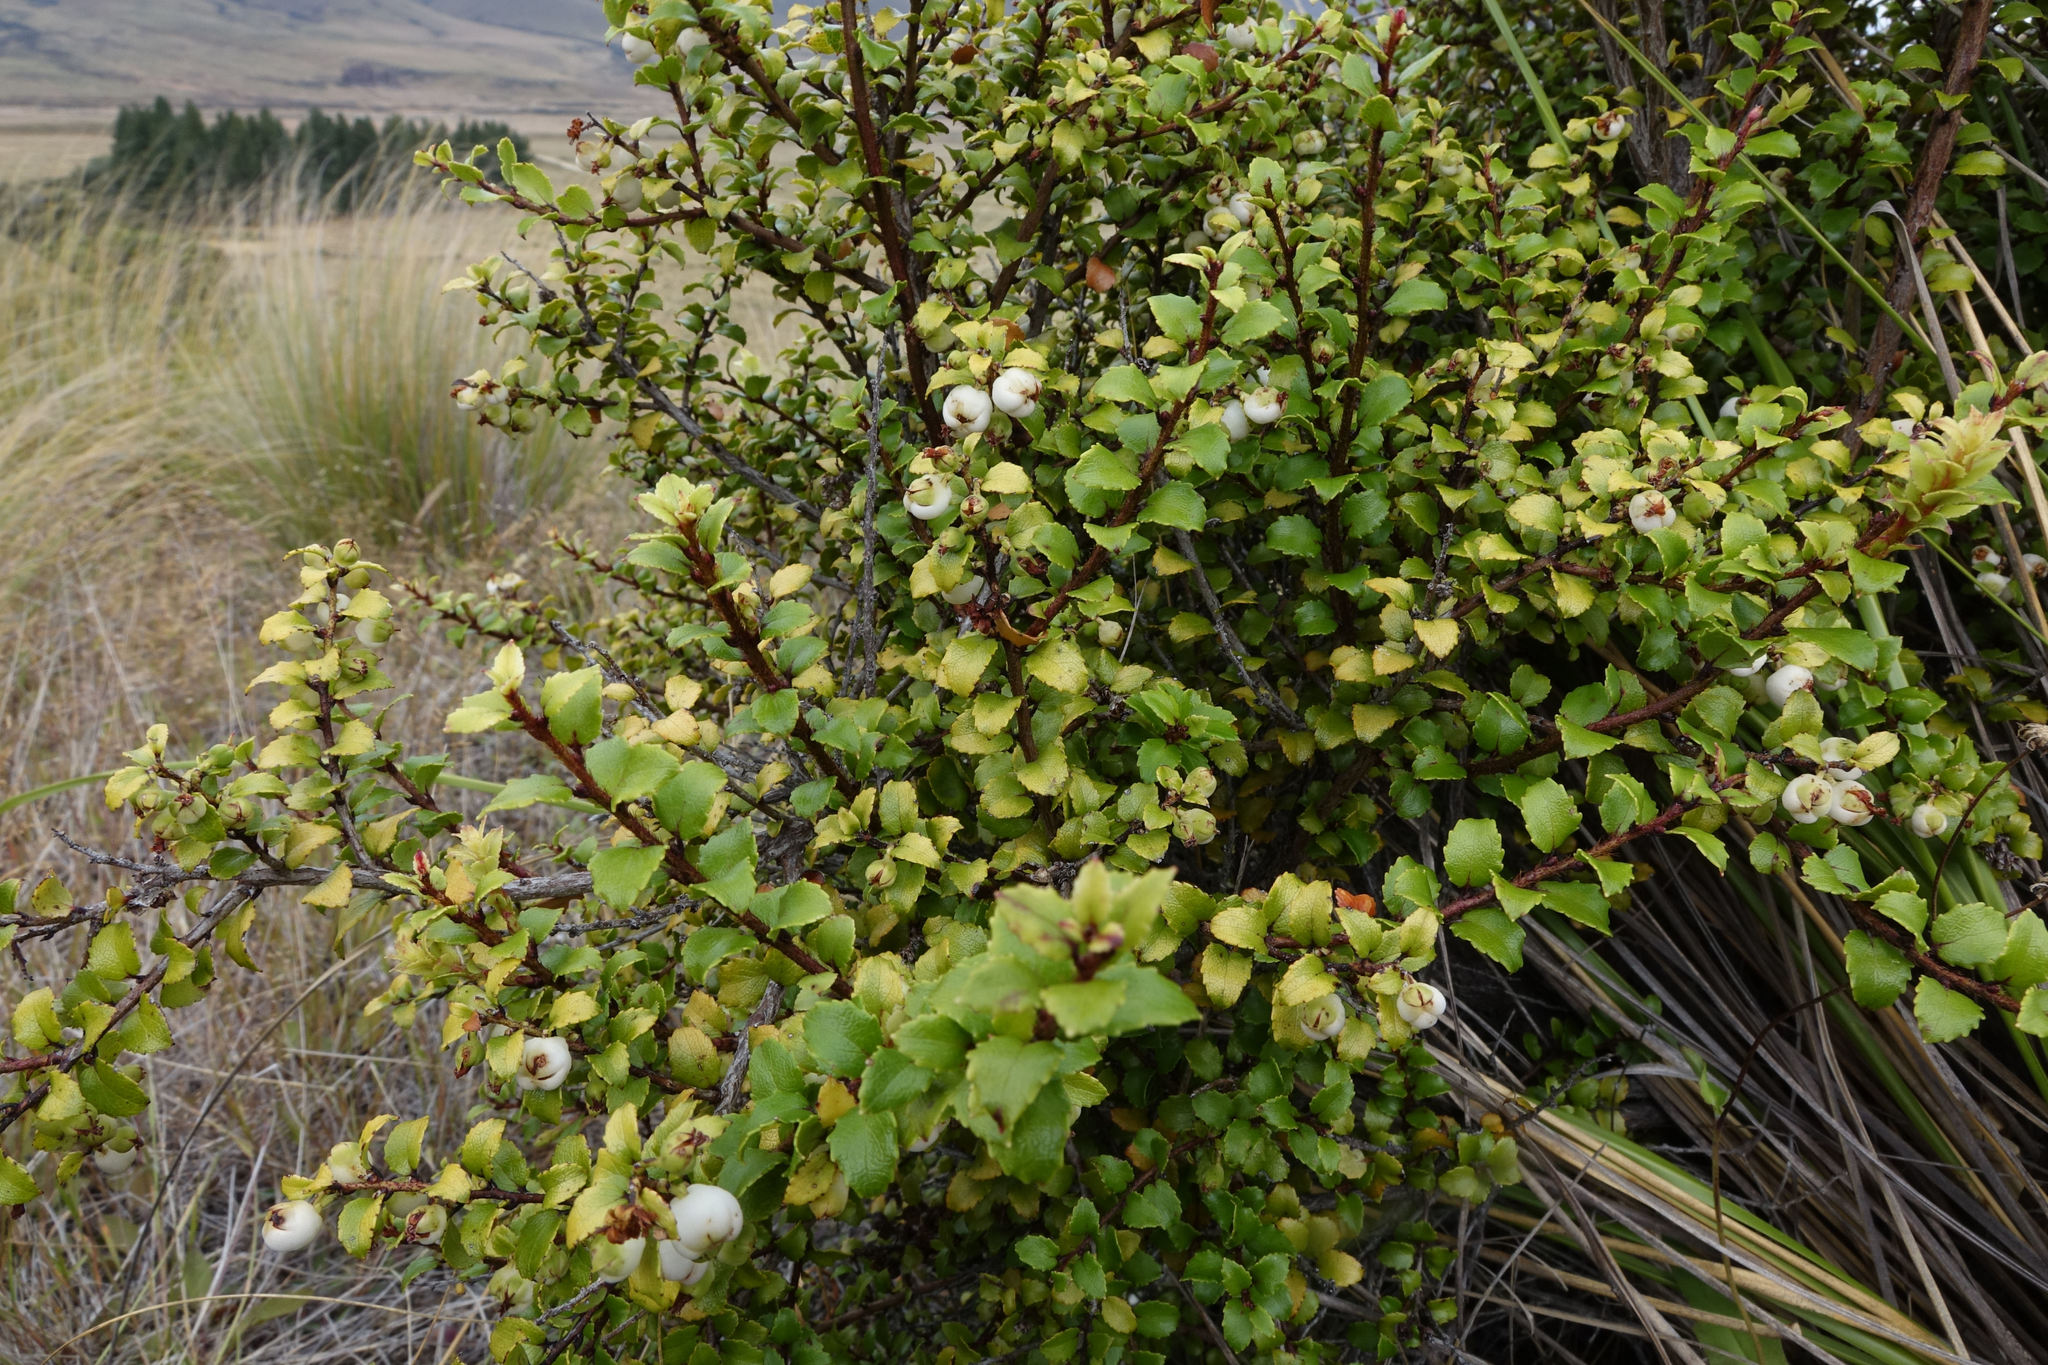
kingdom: Plantae
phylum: Tracheophyta
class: Magnoliopsida
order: Ericales
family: Ericaceae
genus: Gaultheria
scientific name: Gaultheria antipoda
